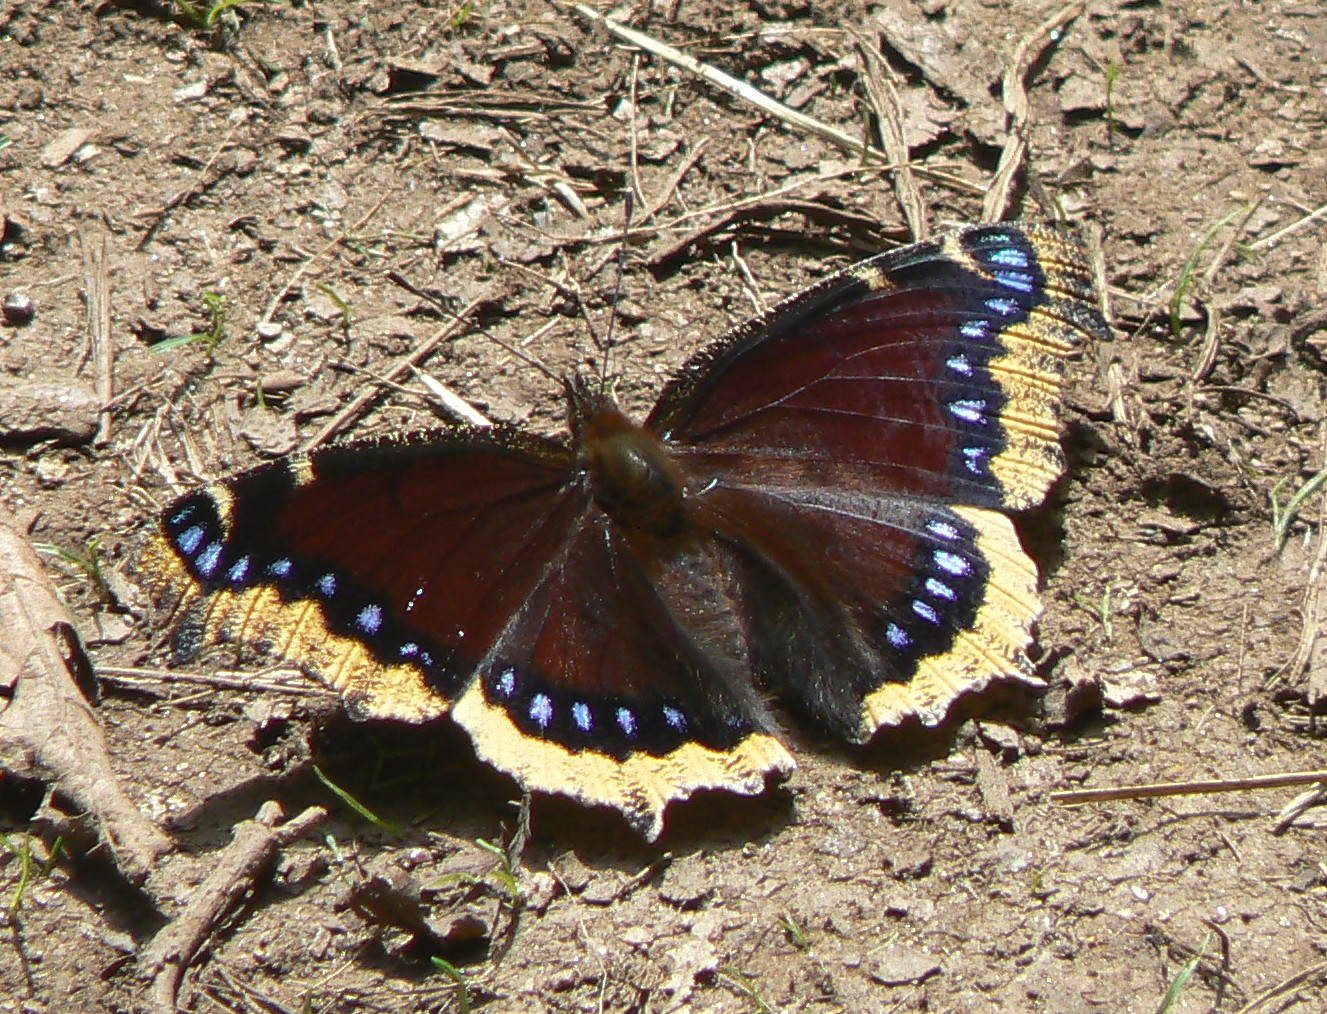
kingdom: Animalia
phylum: Arthropoda
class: Insecta
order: Lepidoptera
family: Nymphalidae
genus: Nymphalis
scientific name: Nymphalis antiopa
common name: Camberwell beauty
